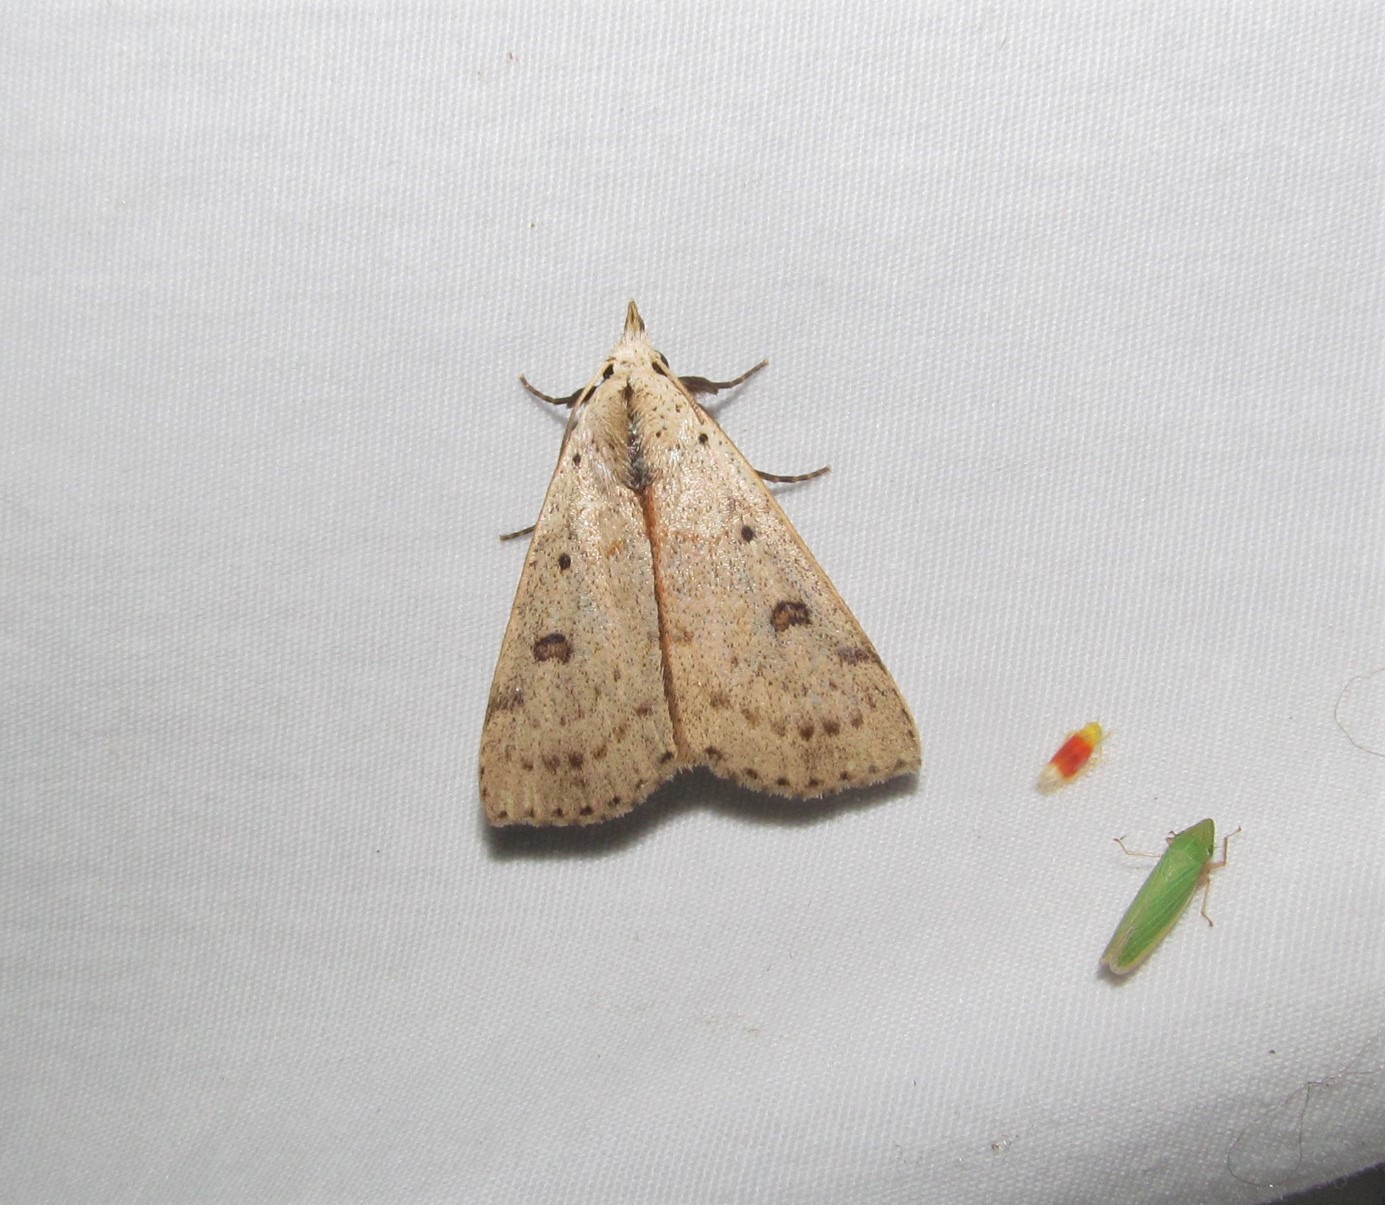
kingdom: Animalia
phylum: Arthropoda
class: Insecta
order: Lepidoptera
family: Erebidae
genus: Scolecocampa
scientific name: Scolecocampa liburna
